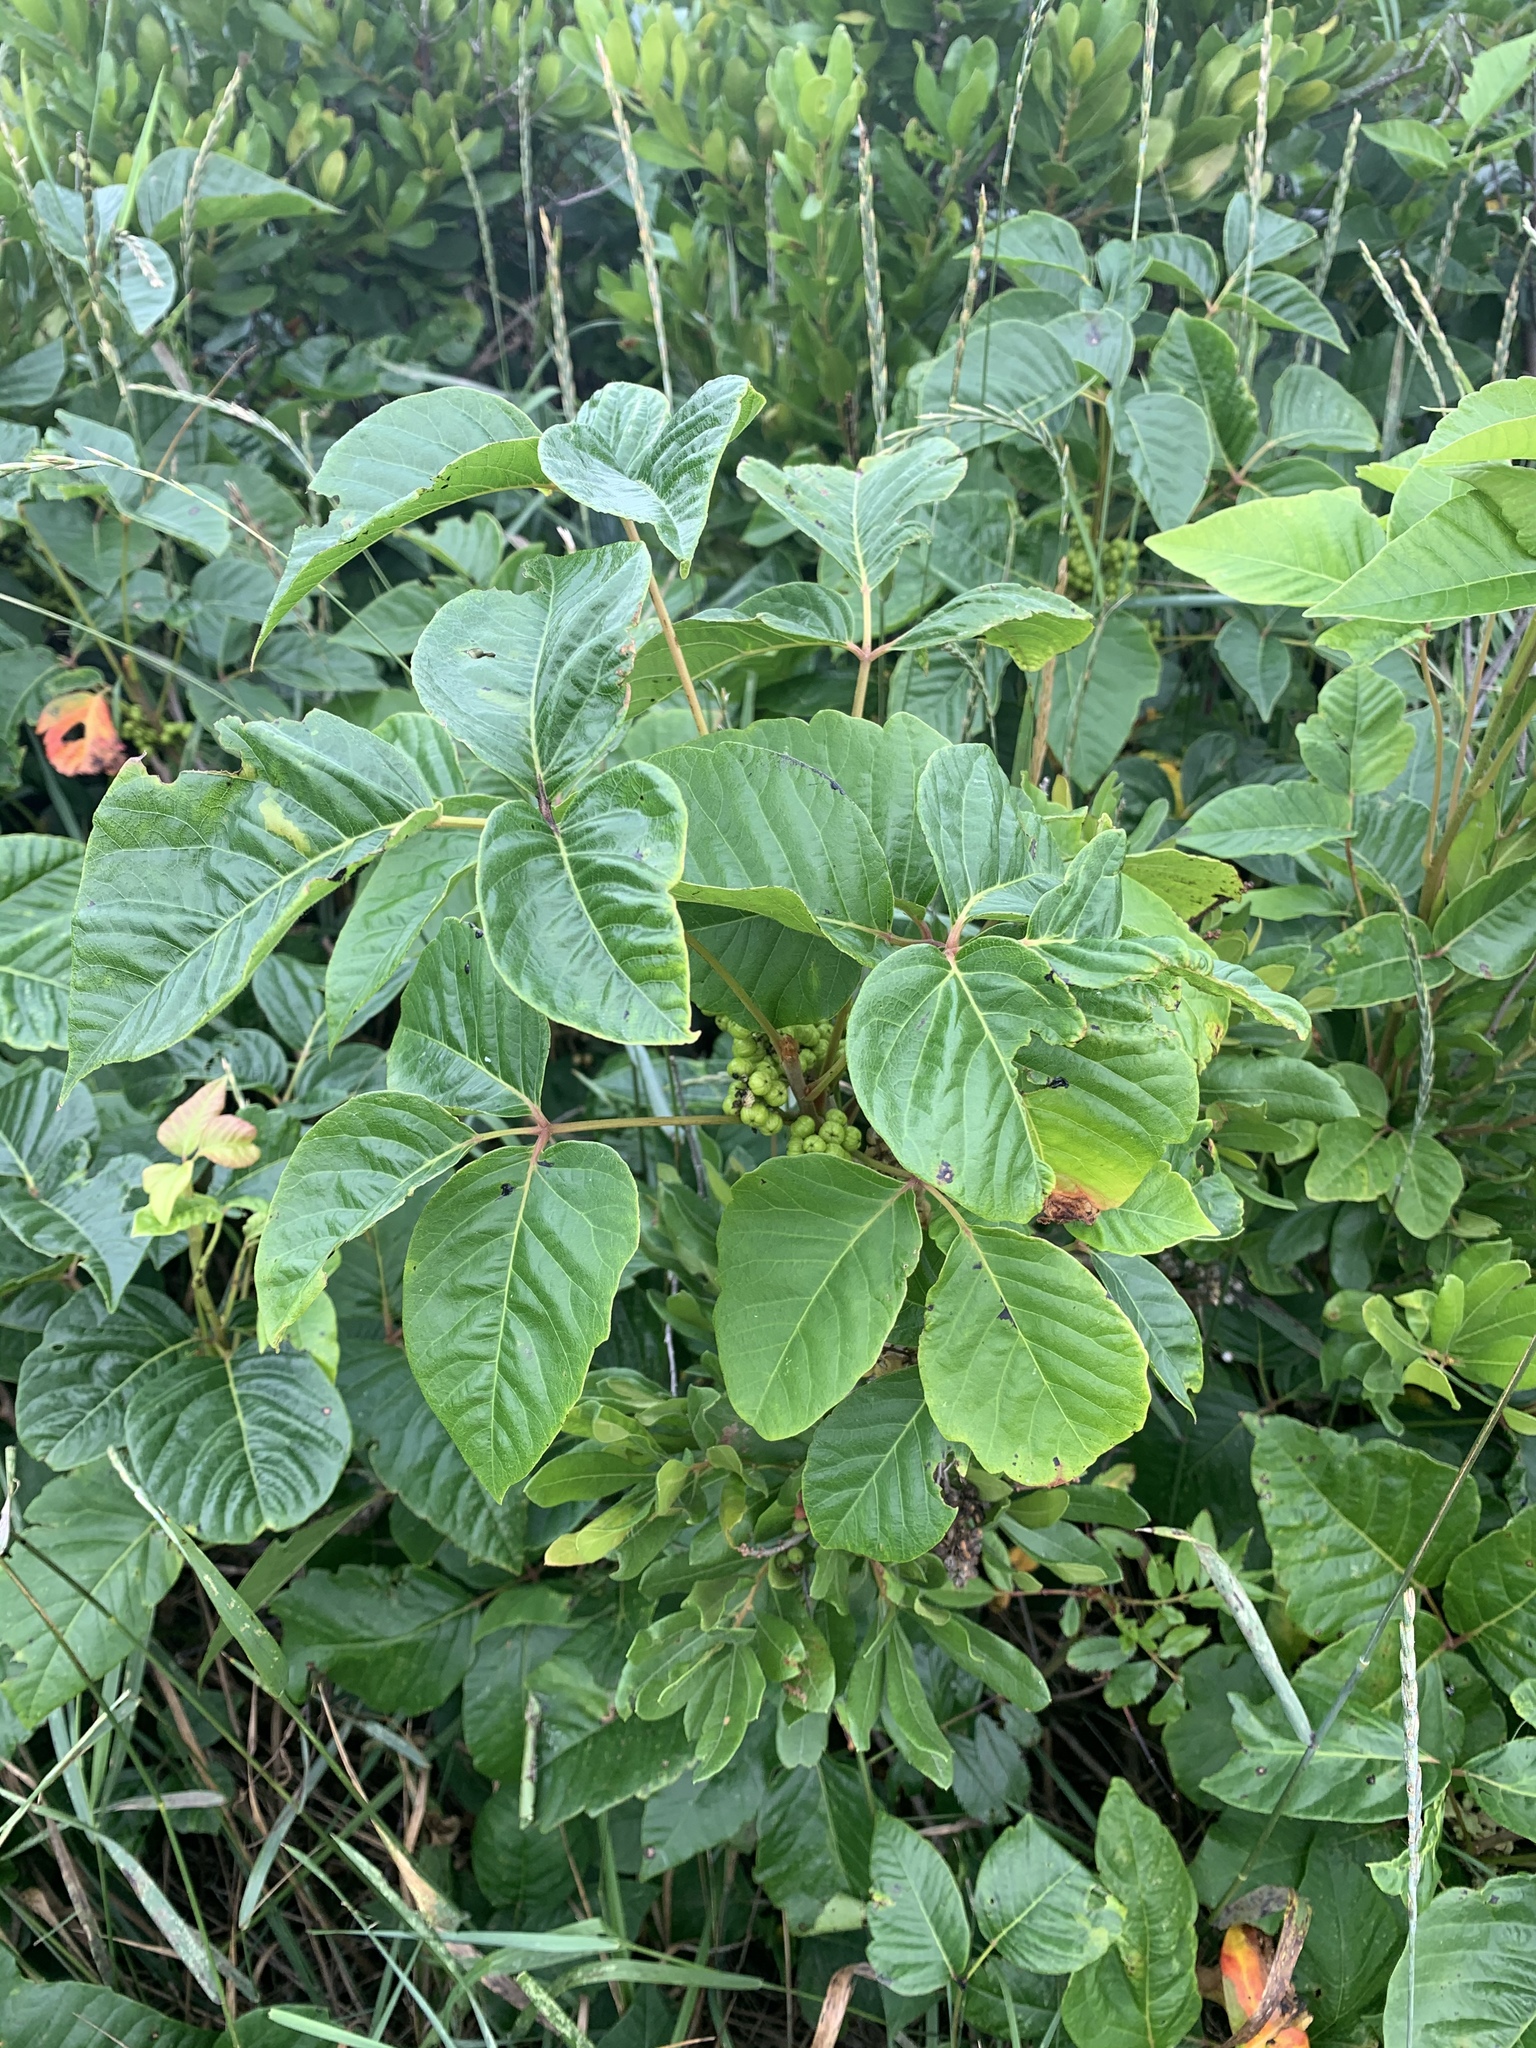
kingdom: Plantae
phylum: Tracheophyta
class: Magnoliopsida
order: Sapindales
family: Anacardiaceae
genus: Toxicodendron
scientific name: Toxicodendron rydbergii
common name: Rydberg's poison-ivy
